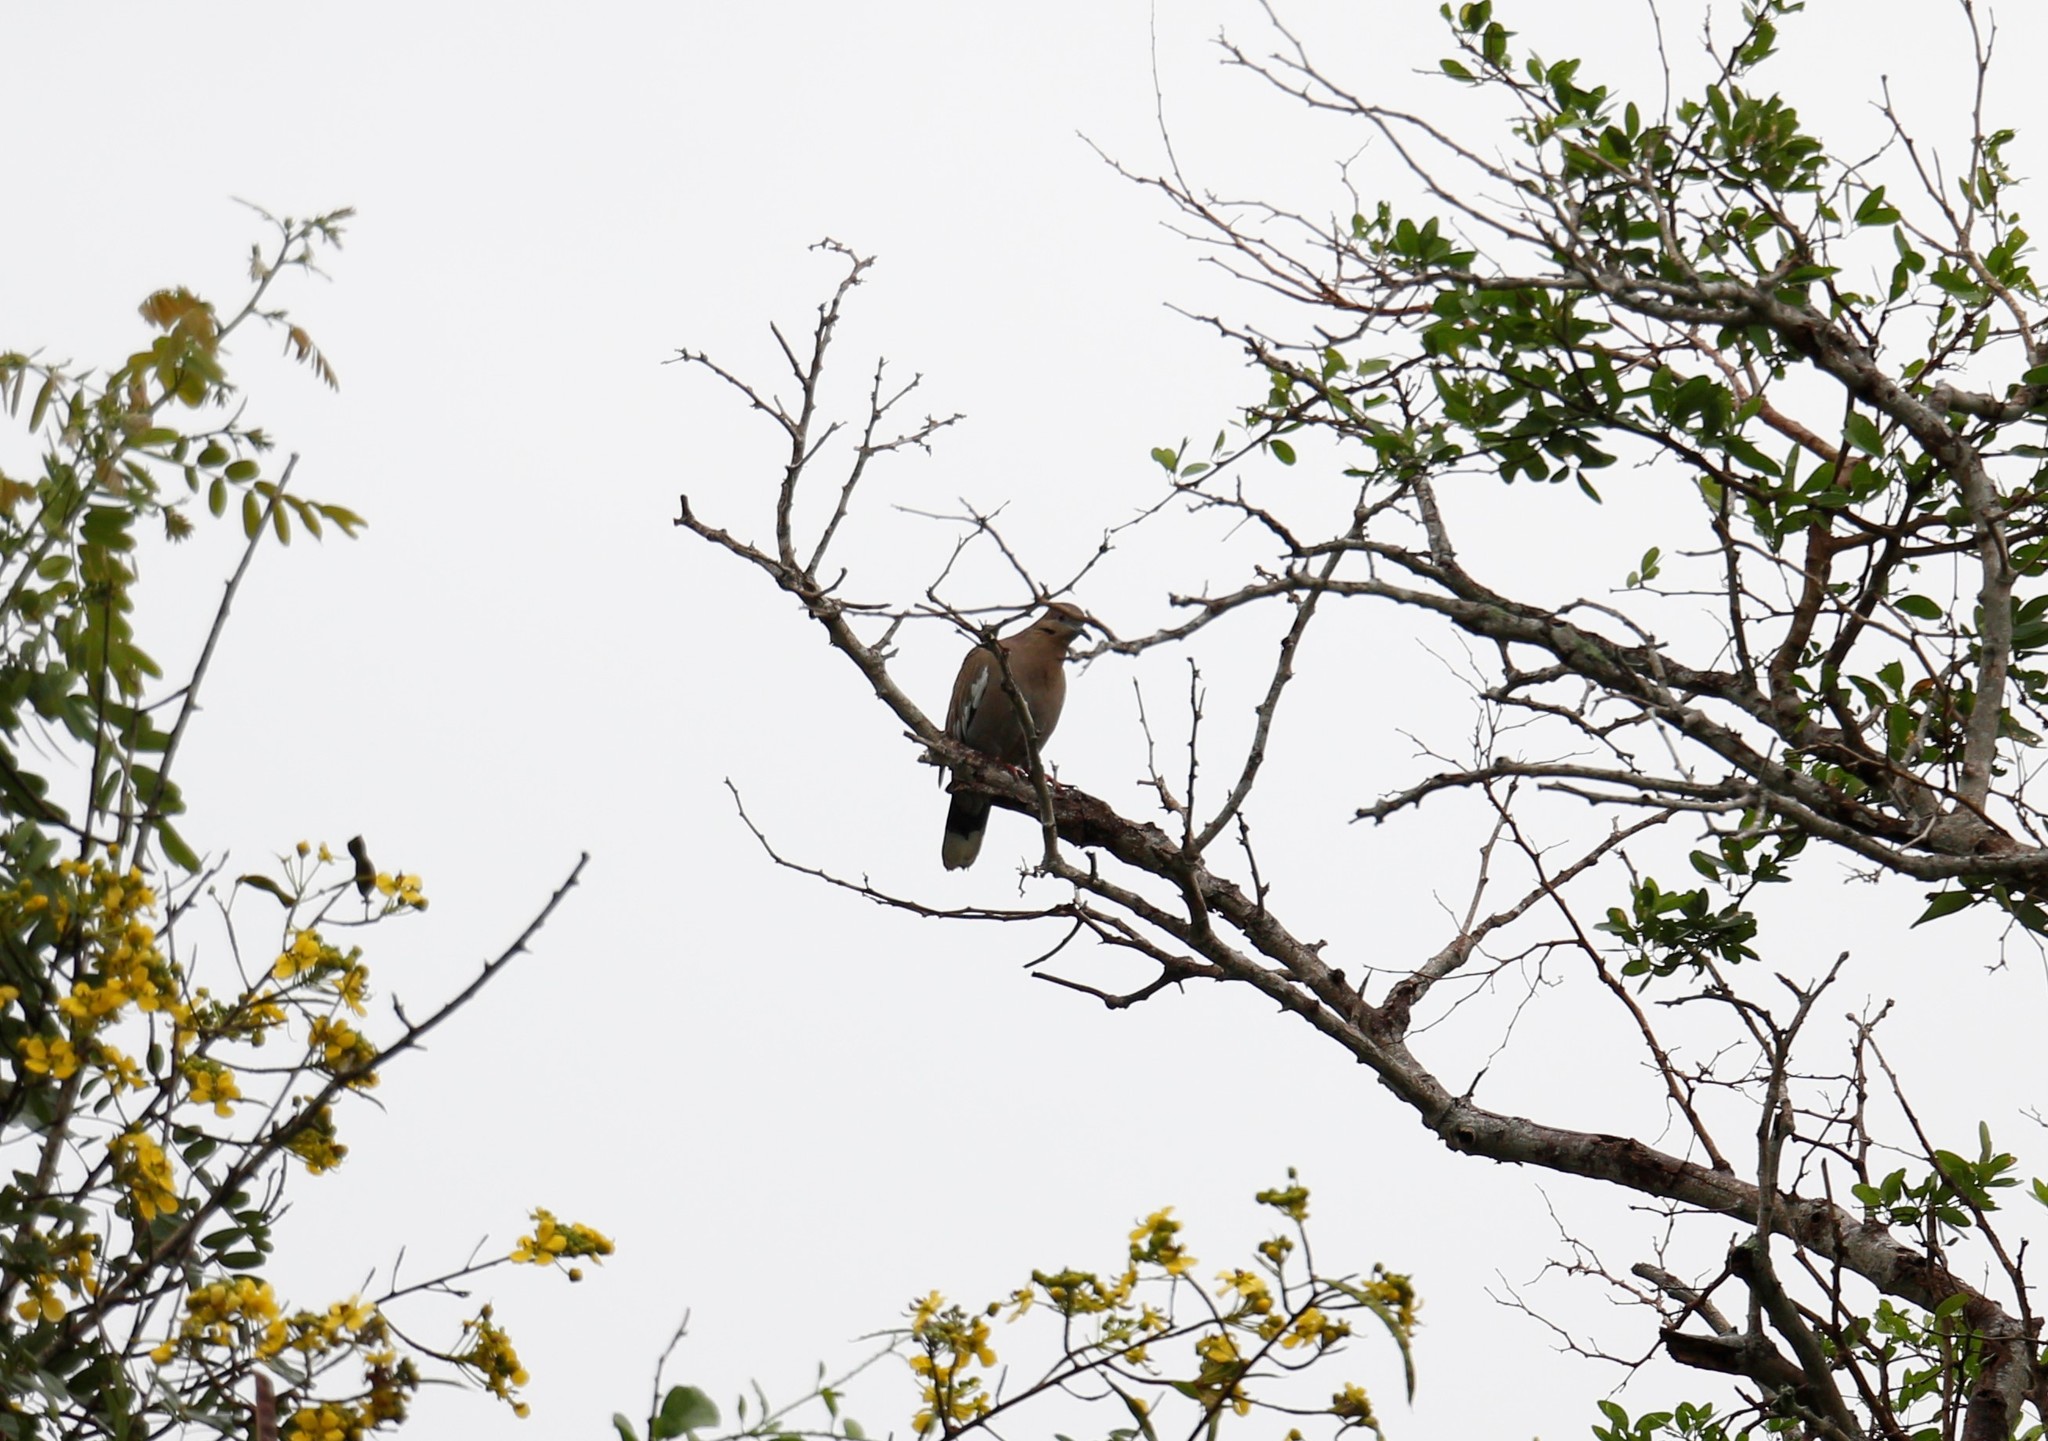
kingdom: Animalia
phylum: Chordata
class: Aves
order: Columbiformes
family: Columbidae
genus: Zenaida
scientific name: Zenaida asiatica
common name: White-winged dove
